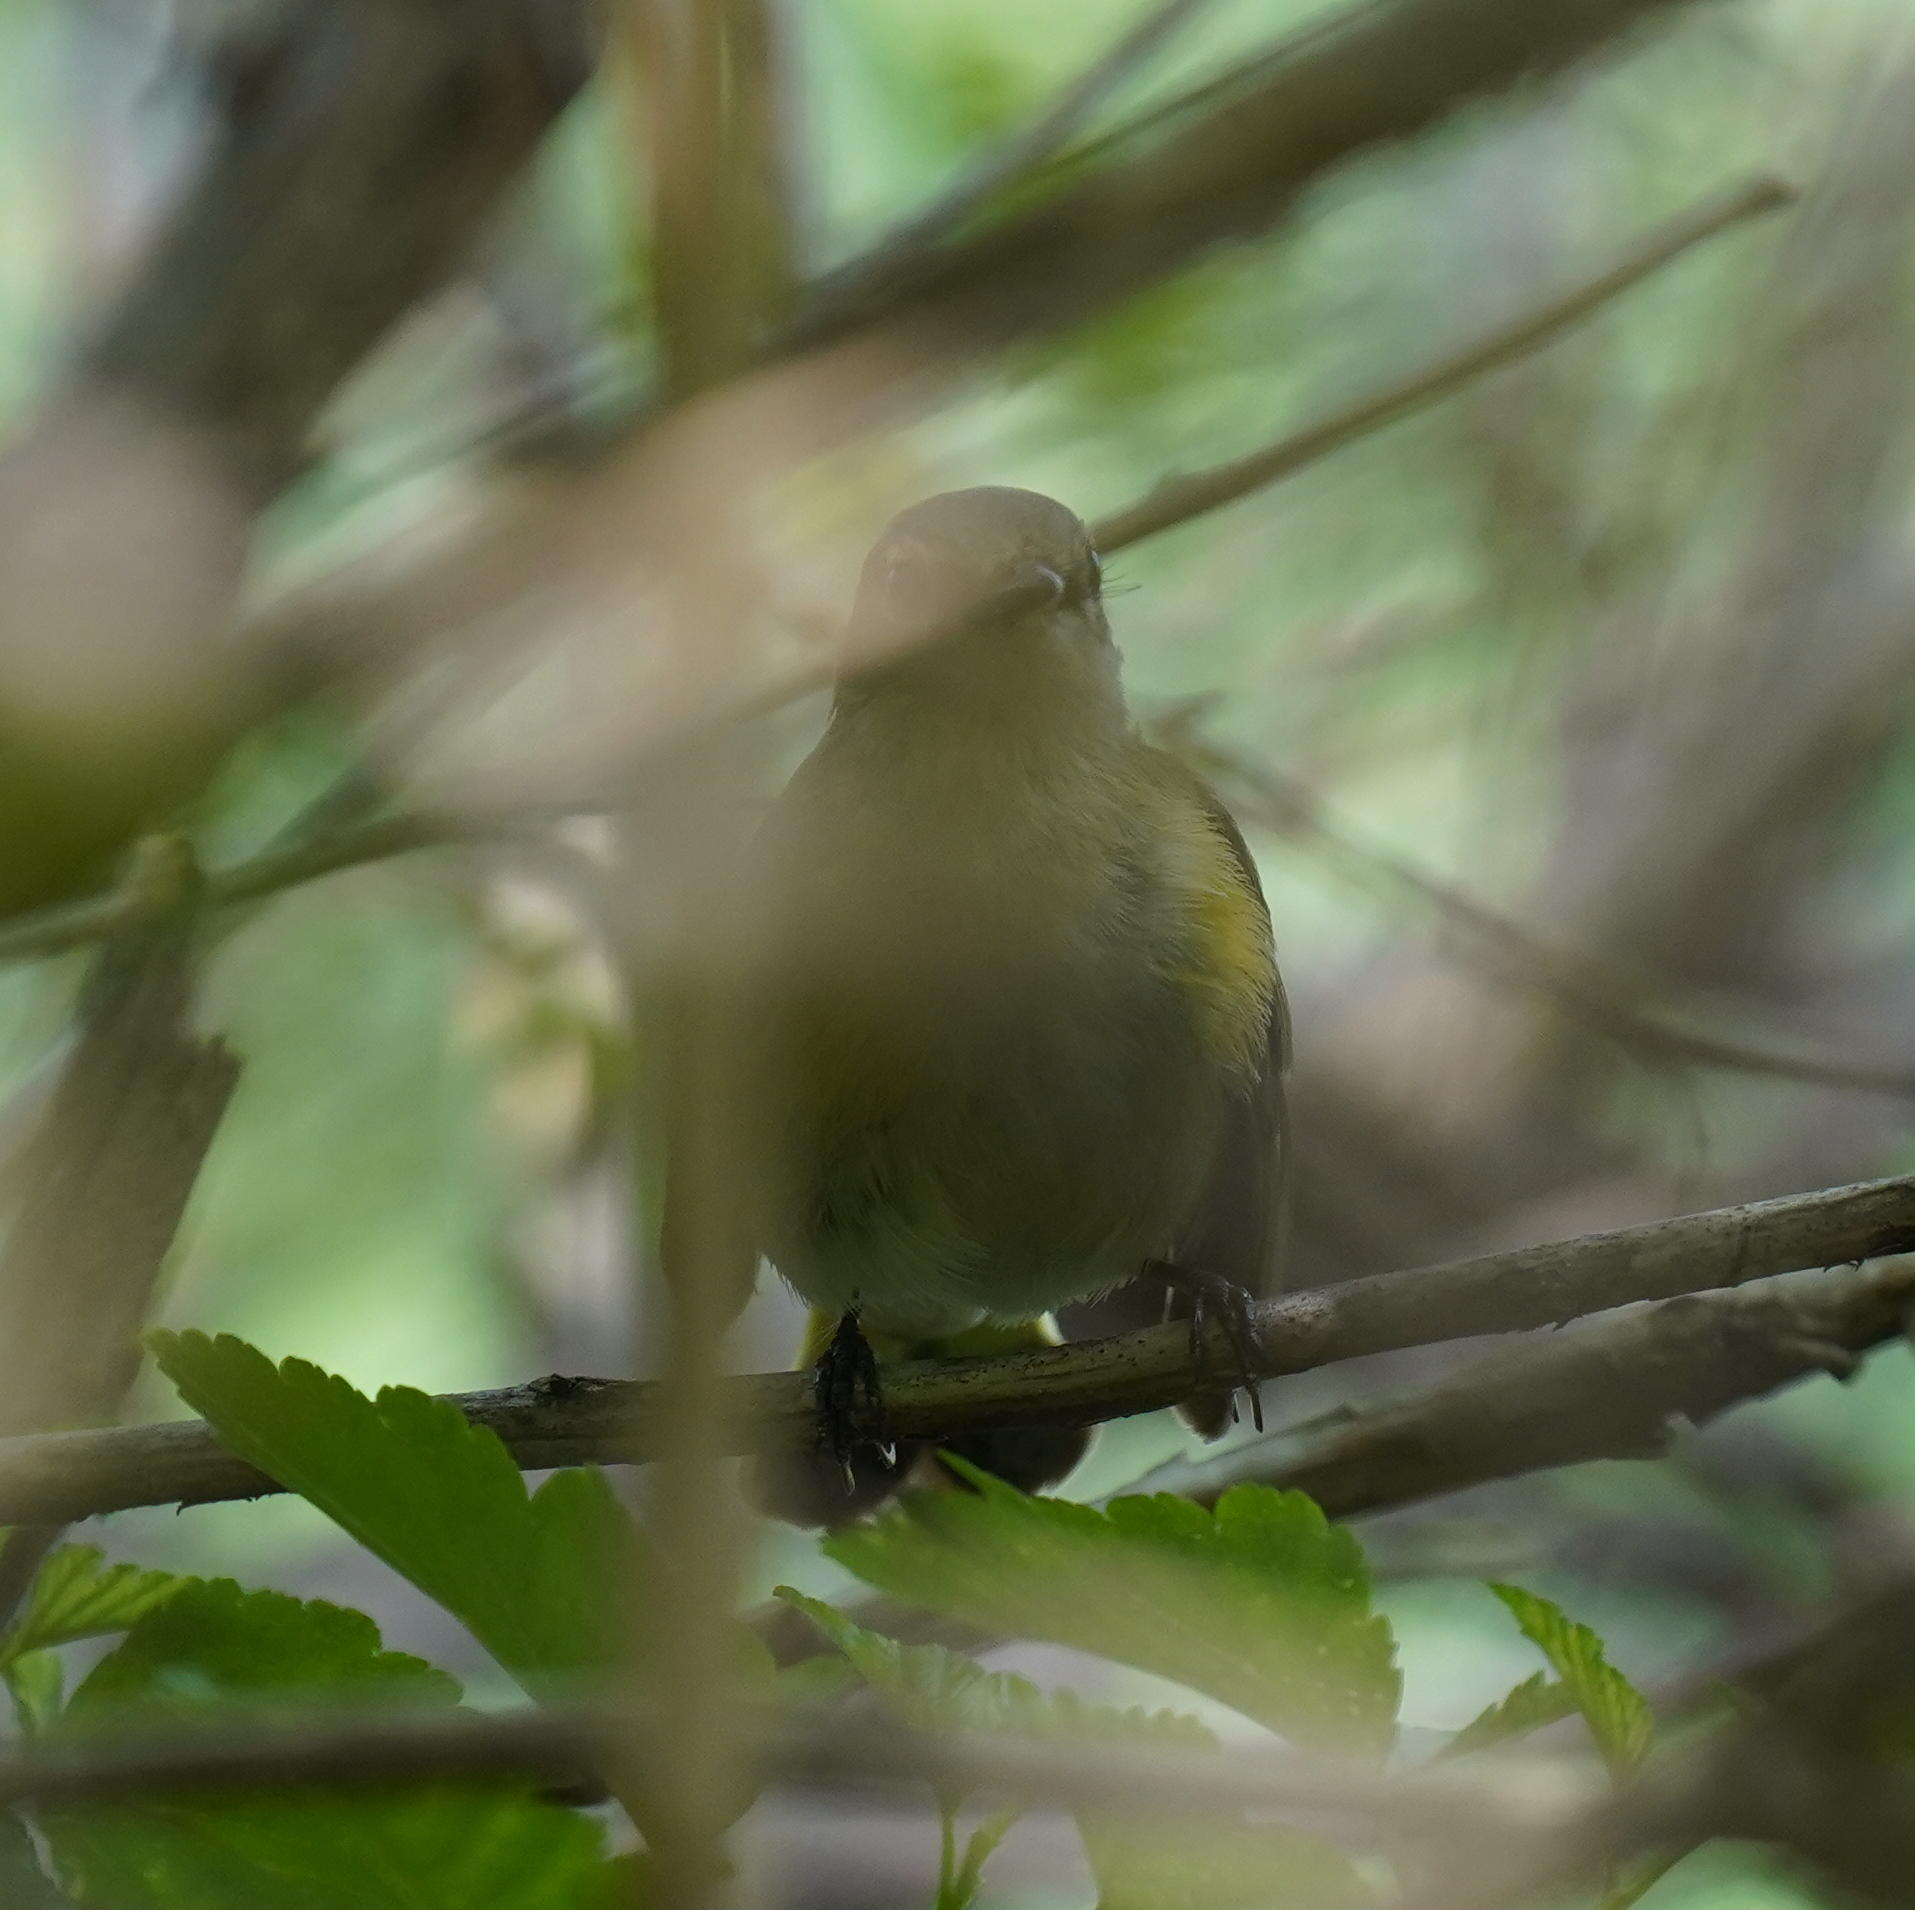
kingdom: Animalia
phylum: Chordata
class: Aves
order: Passeriformes
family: Parulidae
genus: Setophaga
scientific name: Setophaga ruticilla
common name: American redstart
